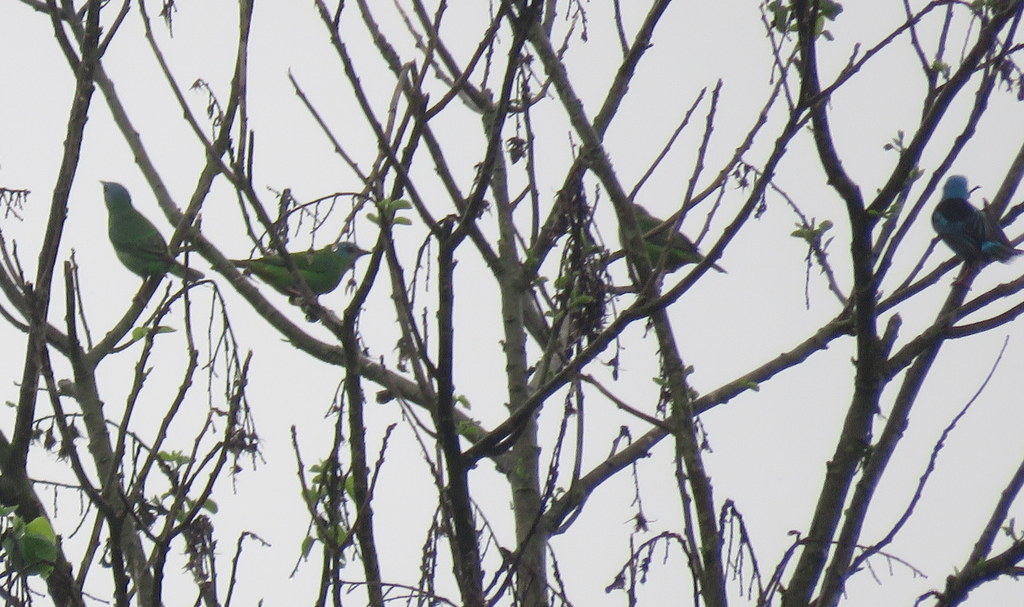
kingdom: Animalia
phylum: Chordata
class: Aves
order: Passeriformes
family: Thraupidae
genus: Dacnis
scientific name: Dacnis cayana
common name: Blue dacnis
